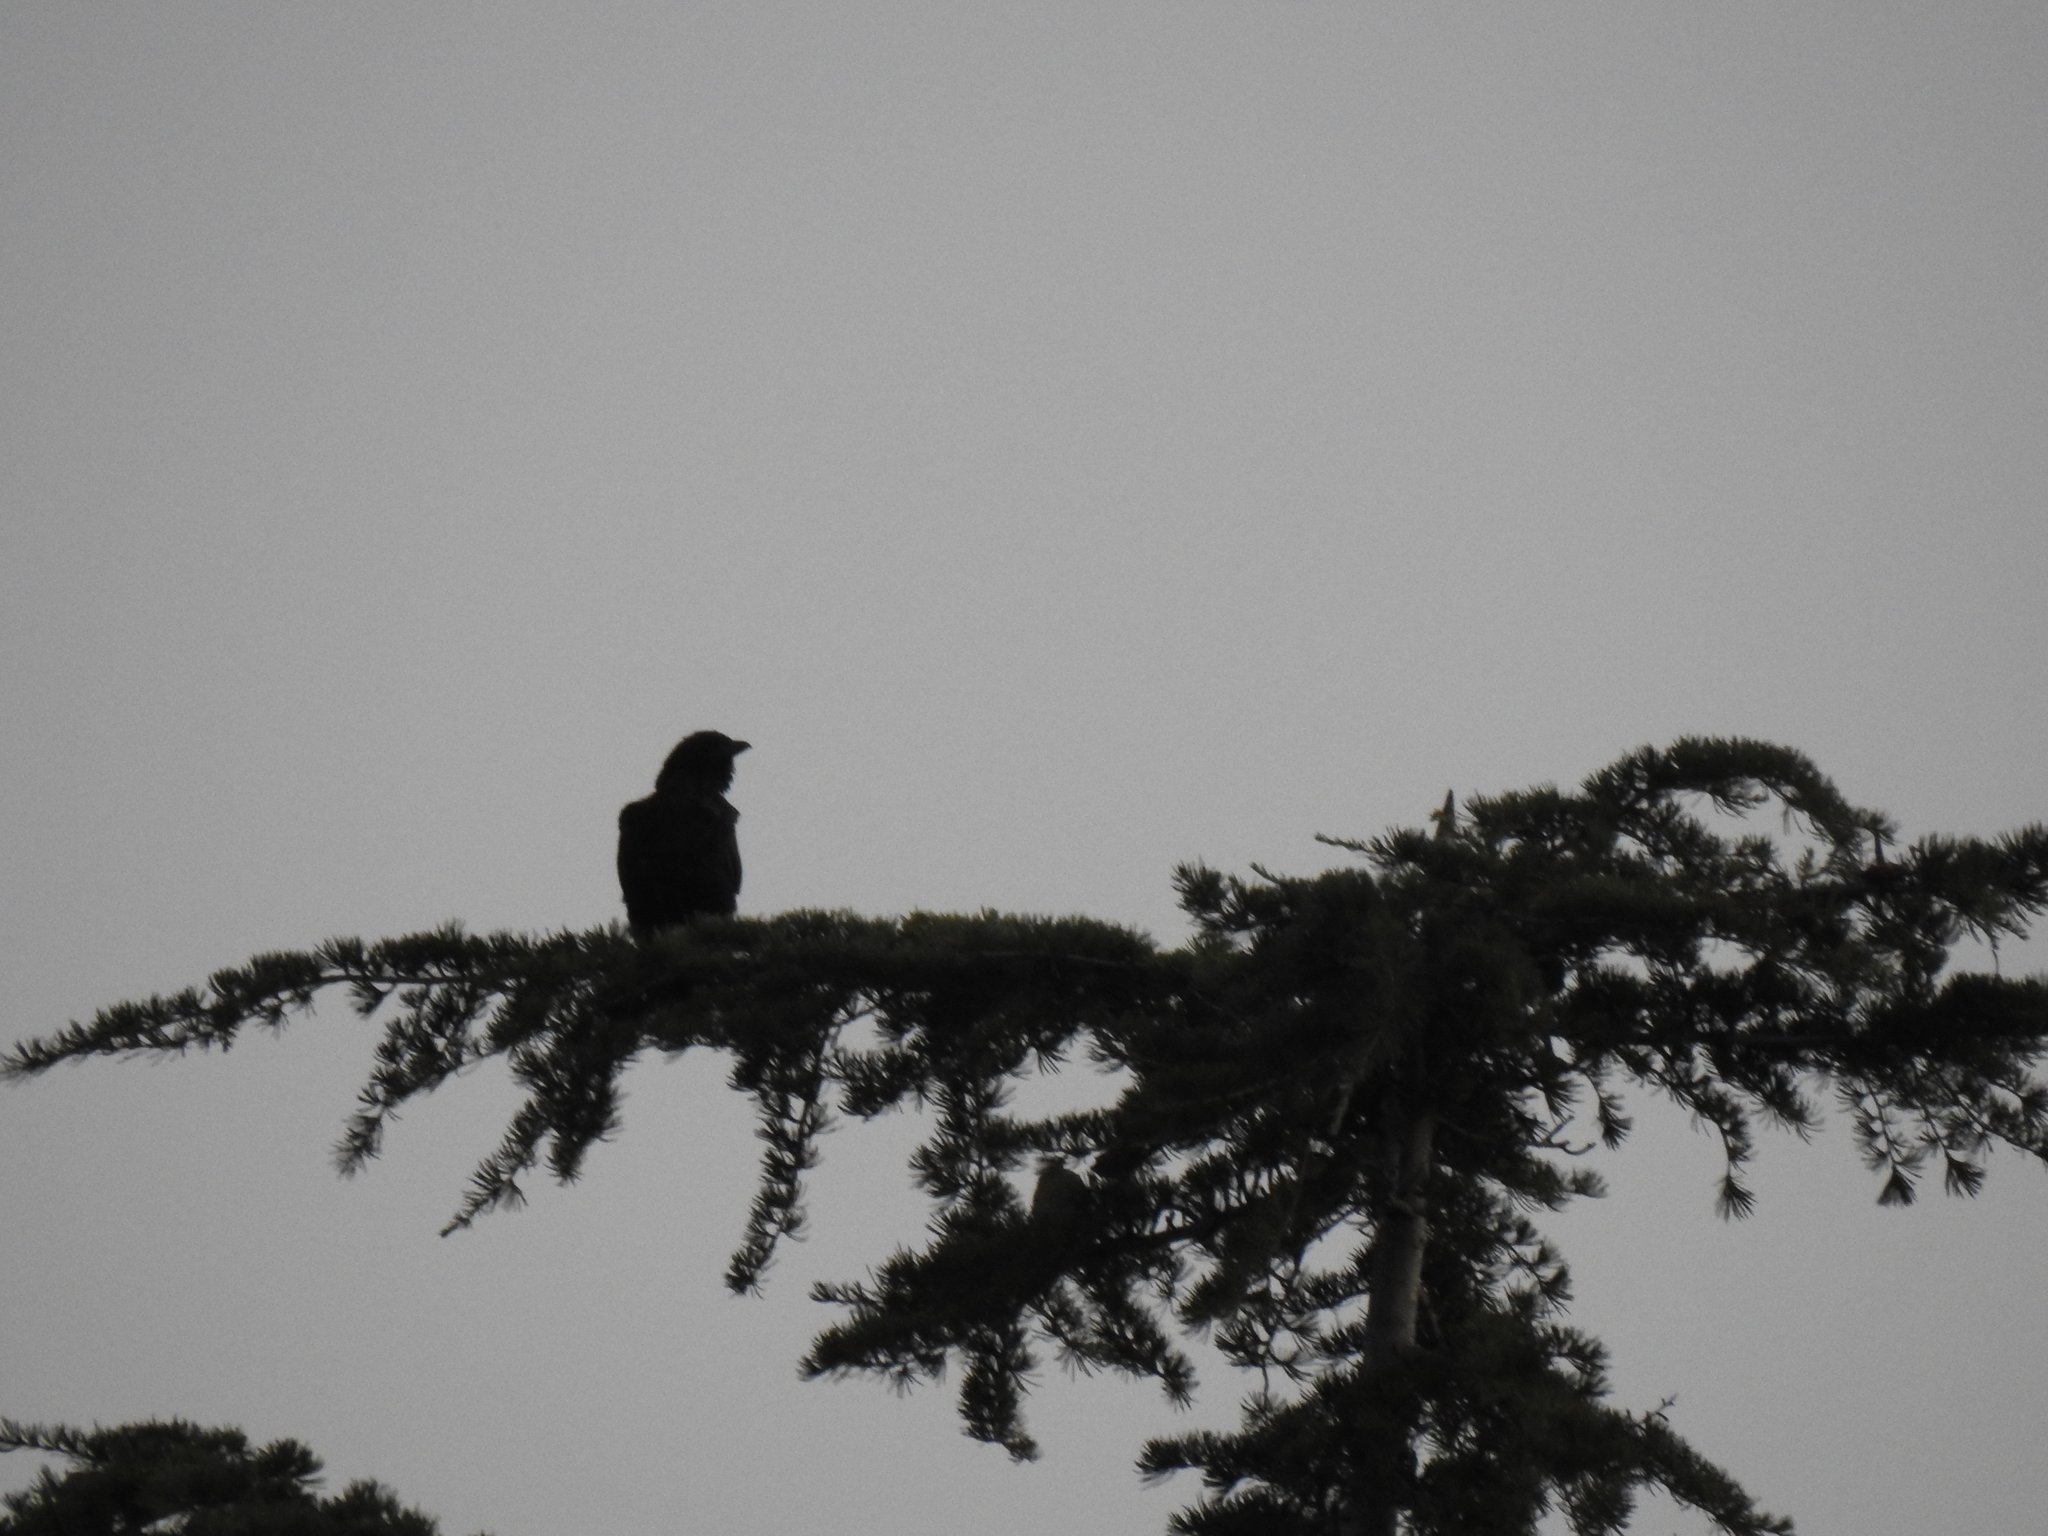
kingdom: Animalia
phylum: Chordata
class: Aves
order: Passeriformes
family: Corvidae
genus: Corvus
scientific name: Corvus brachyrhynchos
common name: American crow
